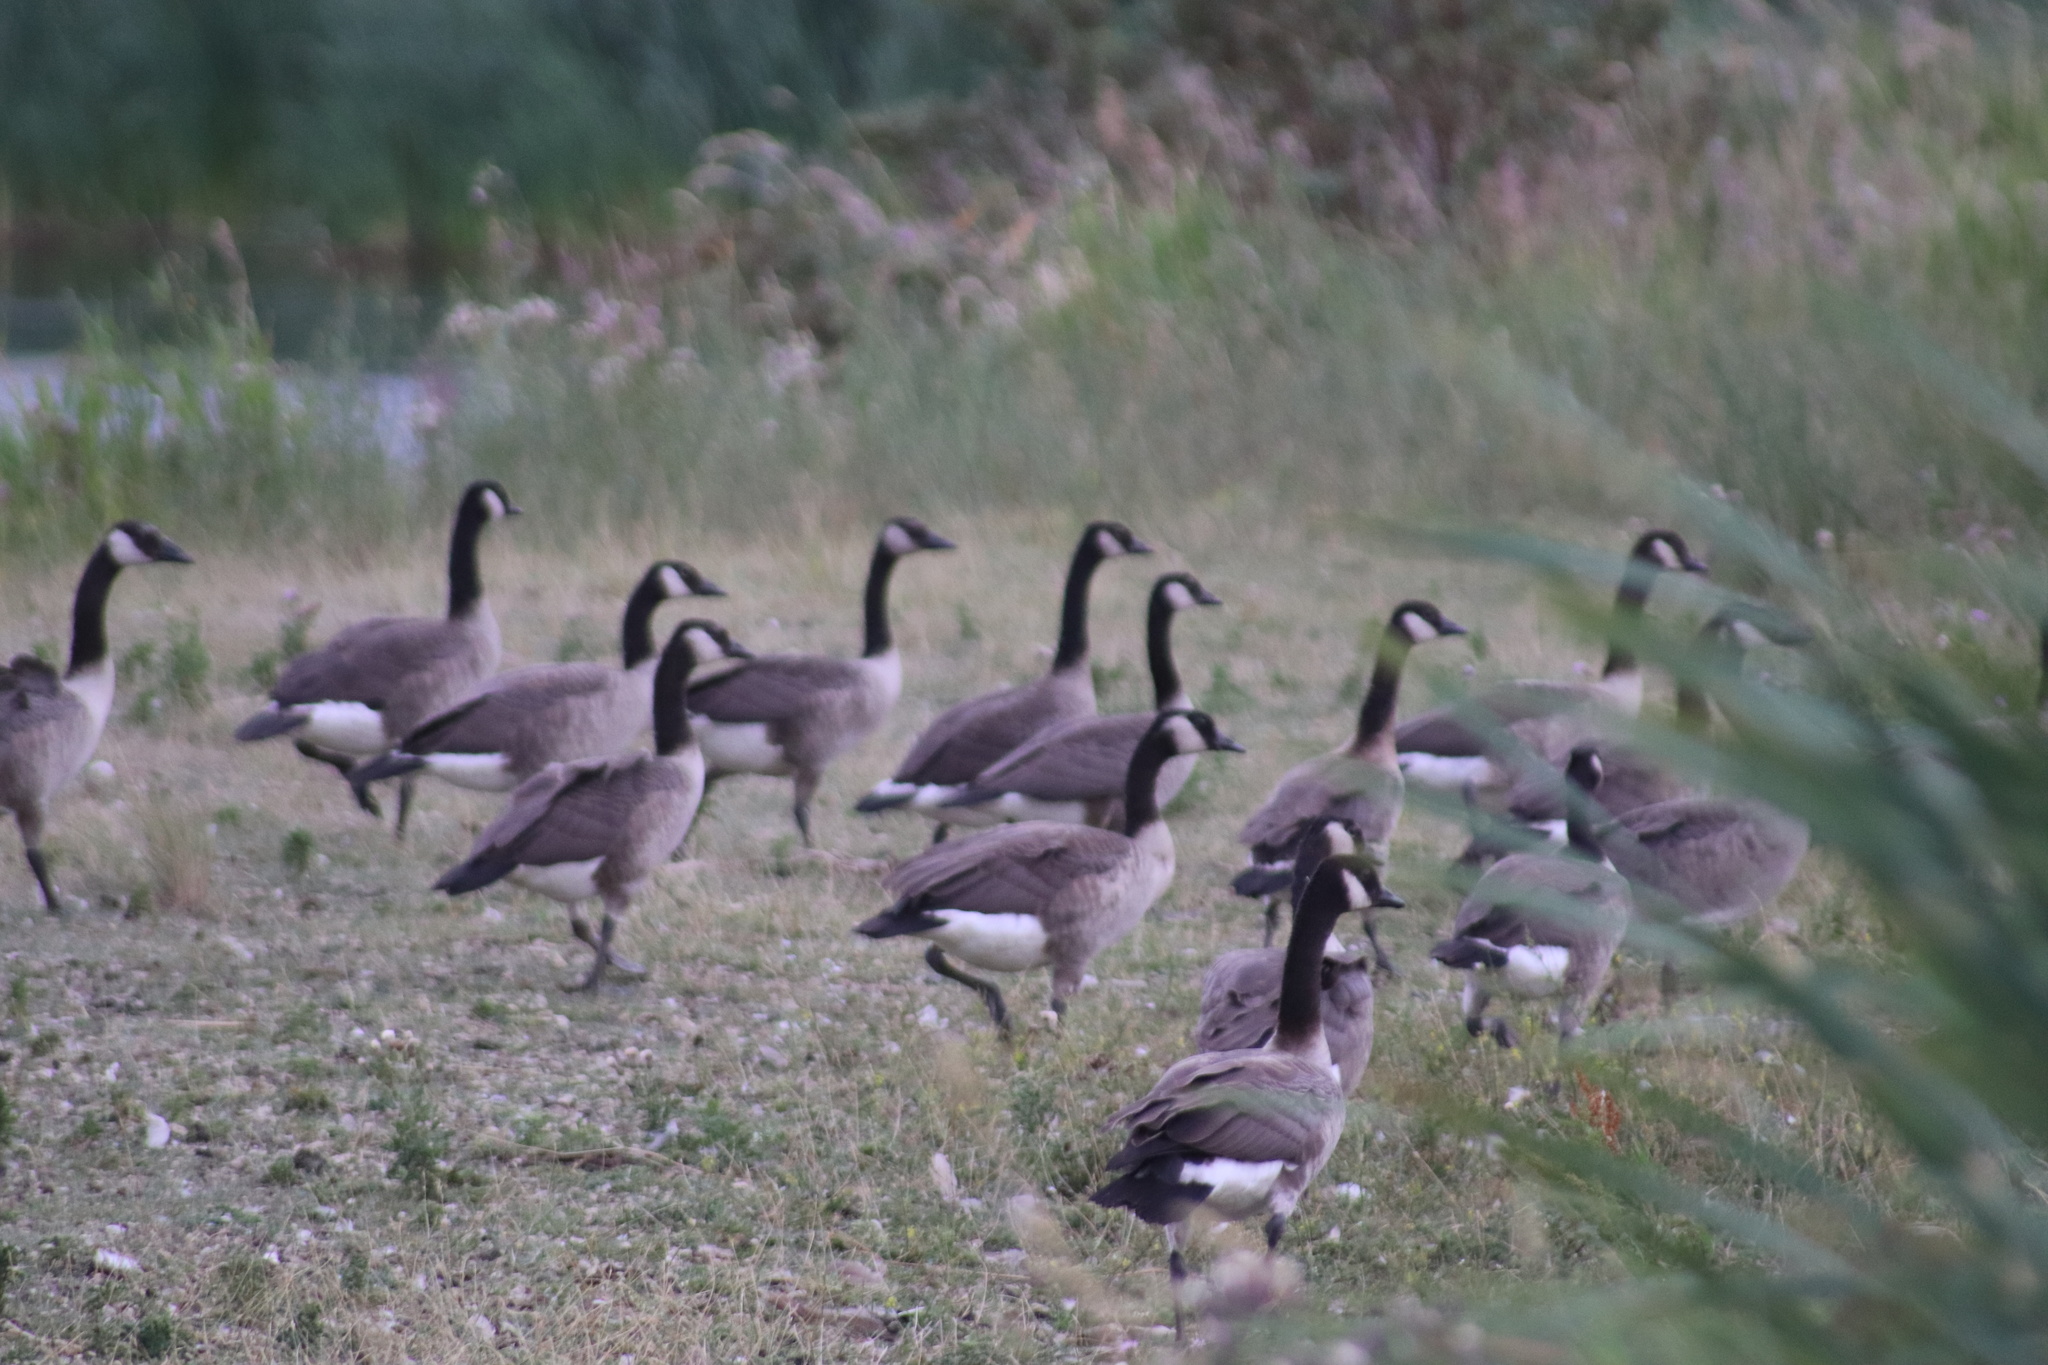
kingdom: Animalia
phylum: Chordata
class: Aves
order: Anseriformes
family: Anatidae
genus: Branta
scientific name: Branta canadensis
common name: Canada goose
